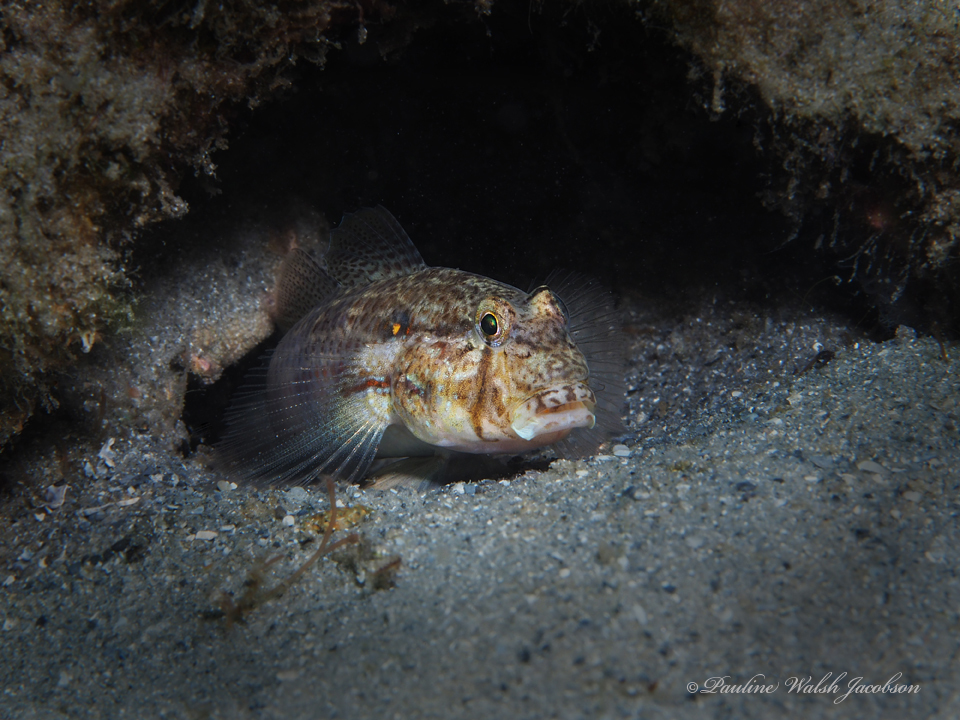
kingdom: Animalia
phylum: Chordata
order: Perciformes
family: Gobiidae
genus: Gnatholepis
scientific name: Gnatholepis thompsoni
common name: Goldspot goby
